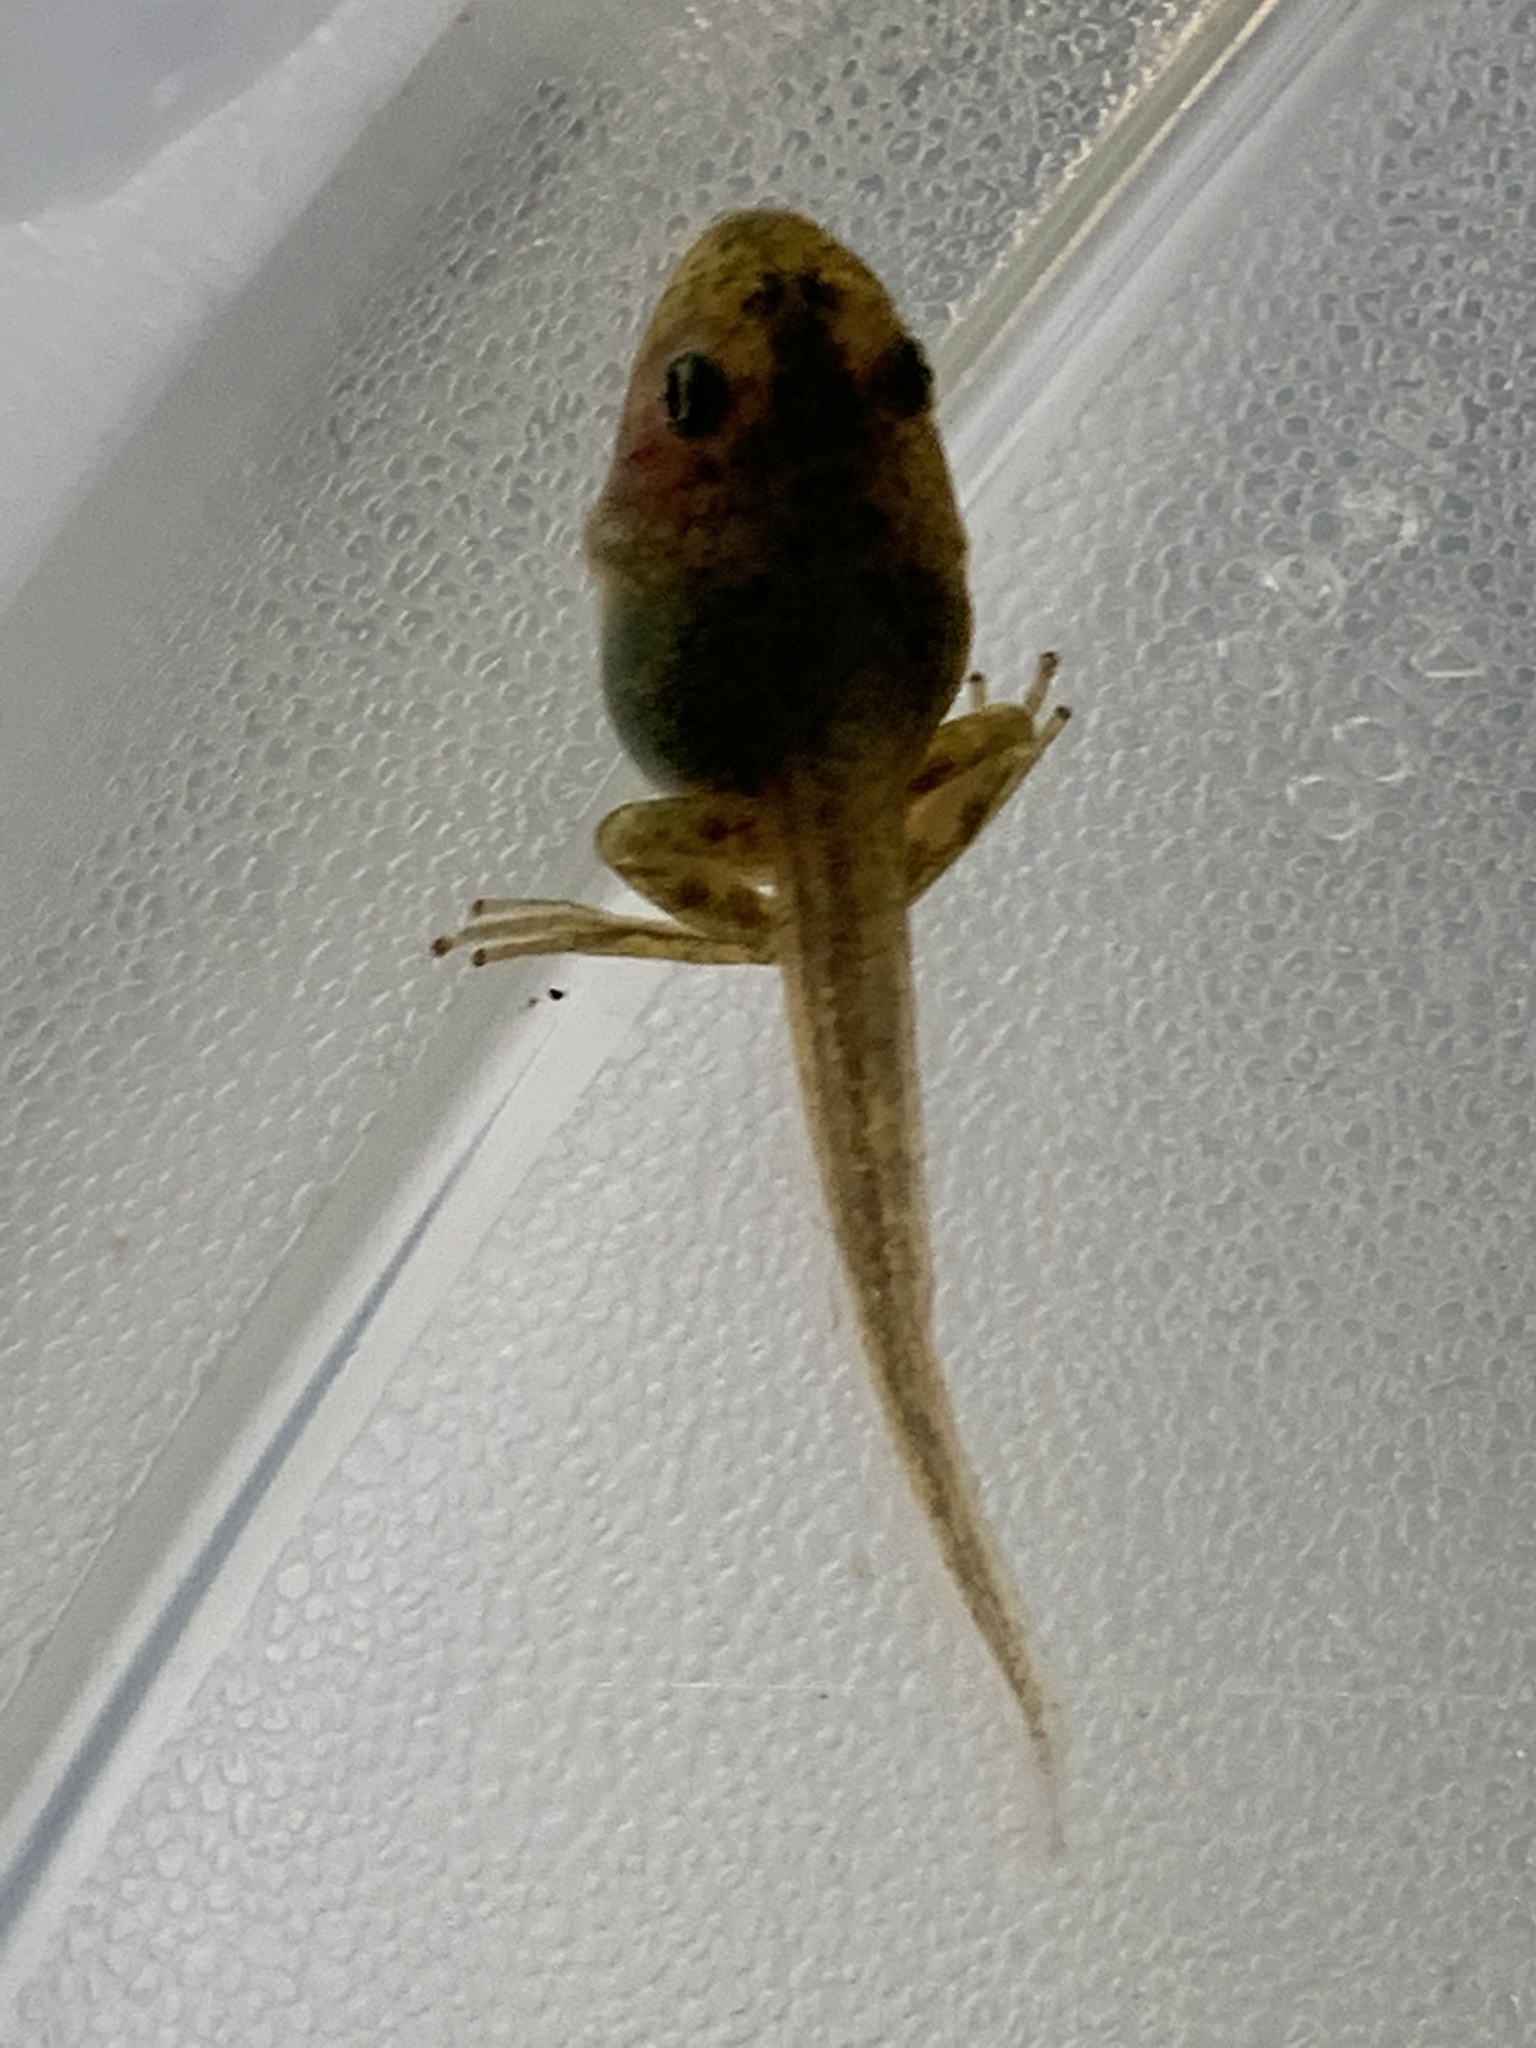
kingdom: Animalia
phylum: Chordata
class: Amphibia
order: Anura
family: Hylidae
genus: Pseudacris
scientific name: Pseudacris regilla
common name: Pacific chorus frog
